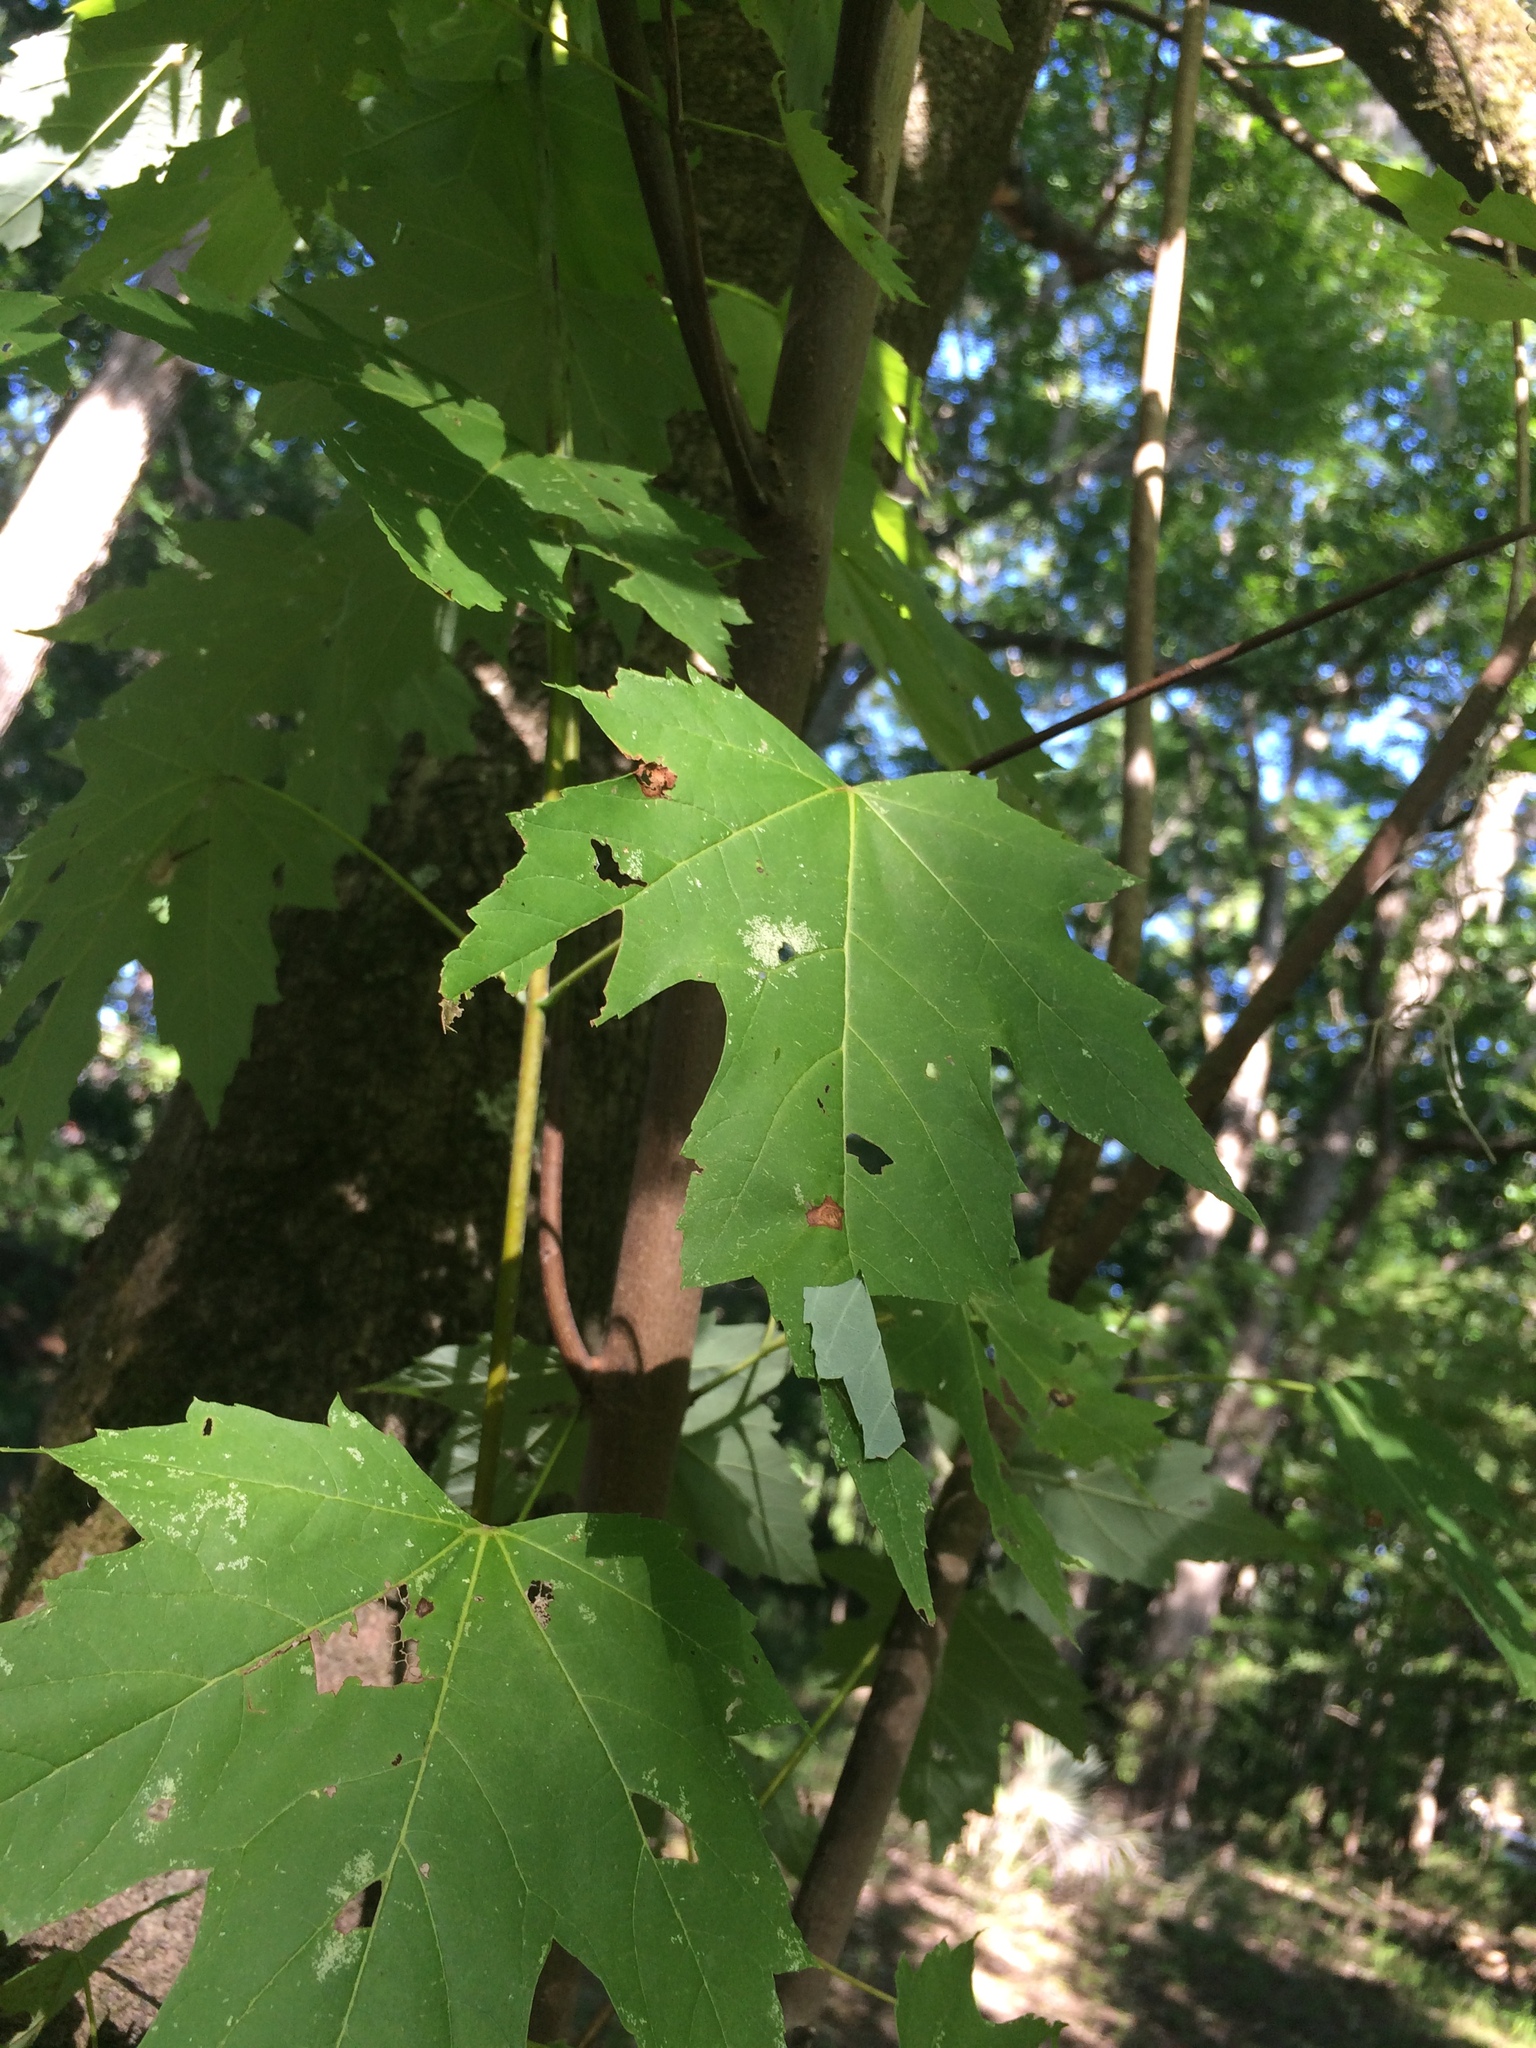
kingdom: Plantae
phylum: Tracheophyta
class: Magnoliopsida
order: Sapindales
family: Sapindaceae
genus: Acer
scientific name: Acer freemanii
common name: Freeman maple
